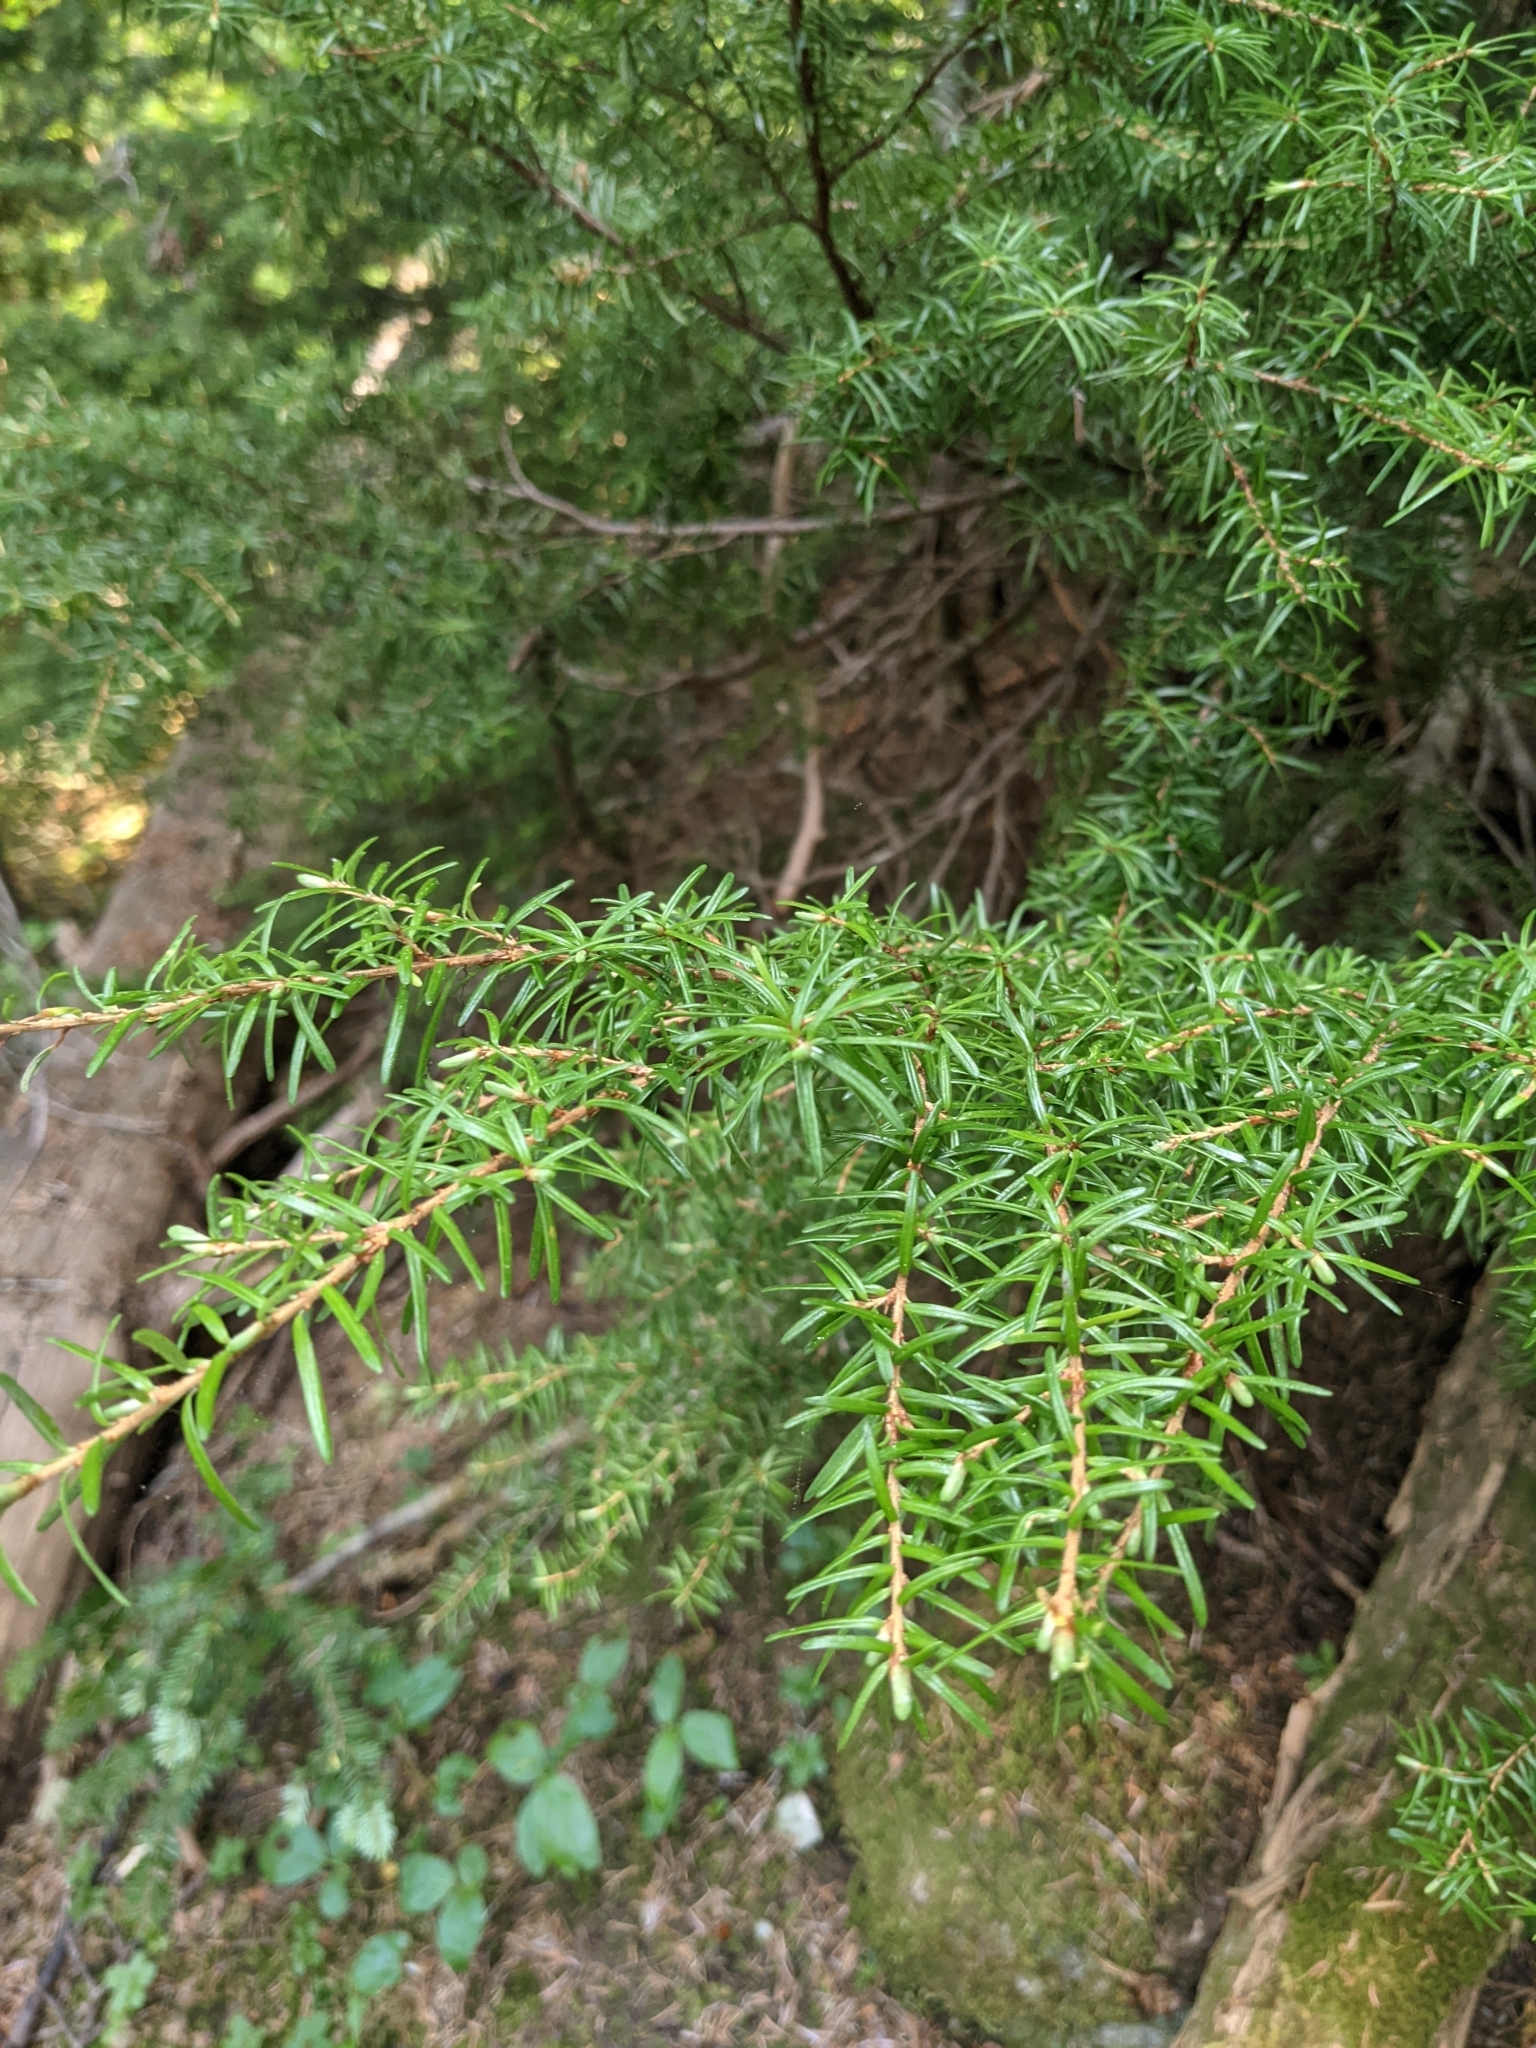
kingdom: Plantae
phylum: Tracheophyta
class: Pinopsida
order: Pinales
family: Pinaceae
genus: Tsuga
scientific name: Tsuga heterophylla
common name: Western hemlock
